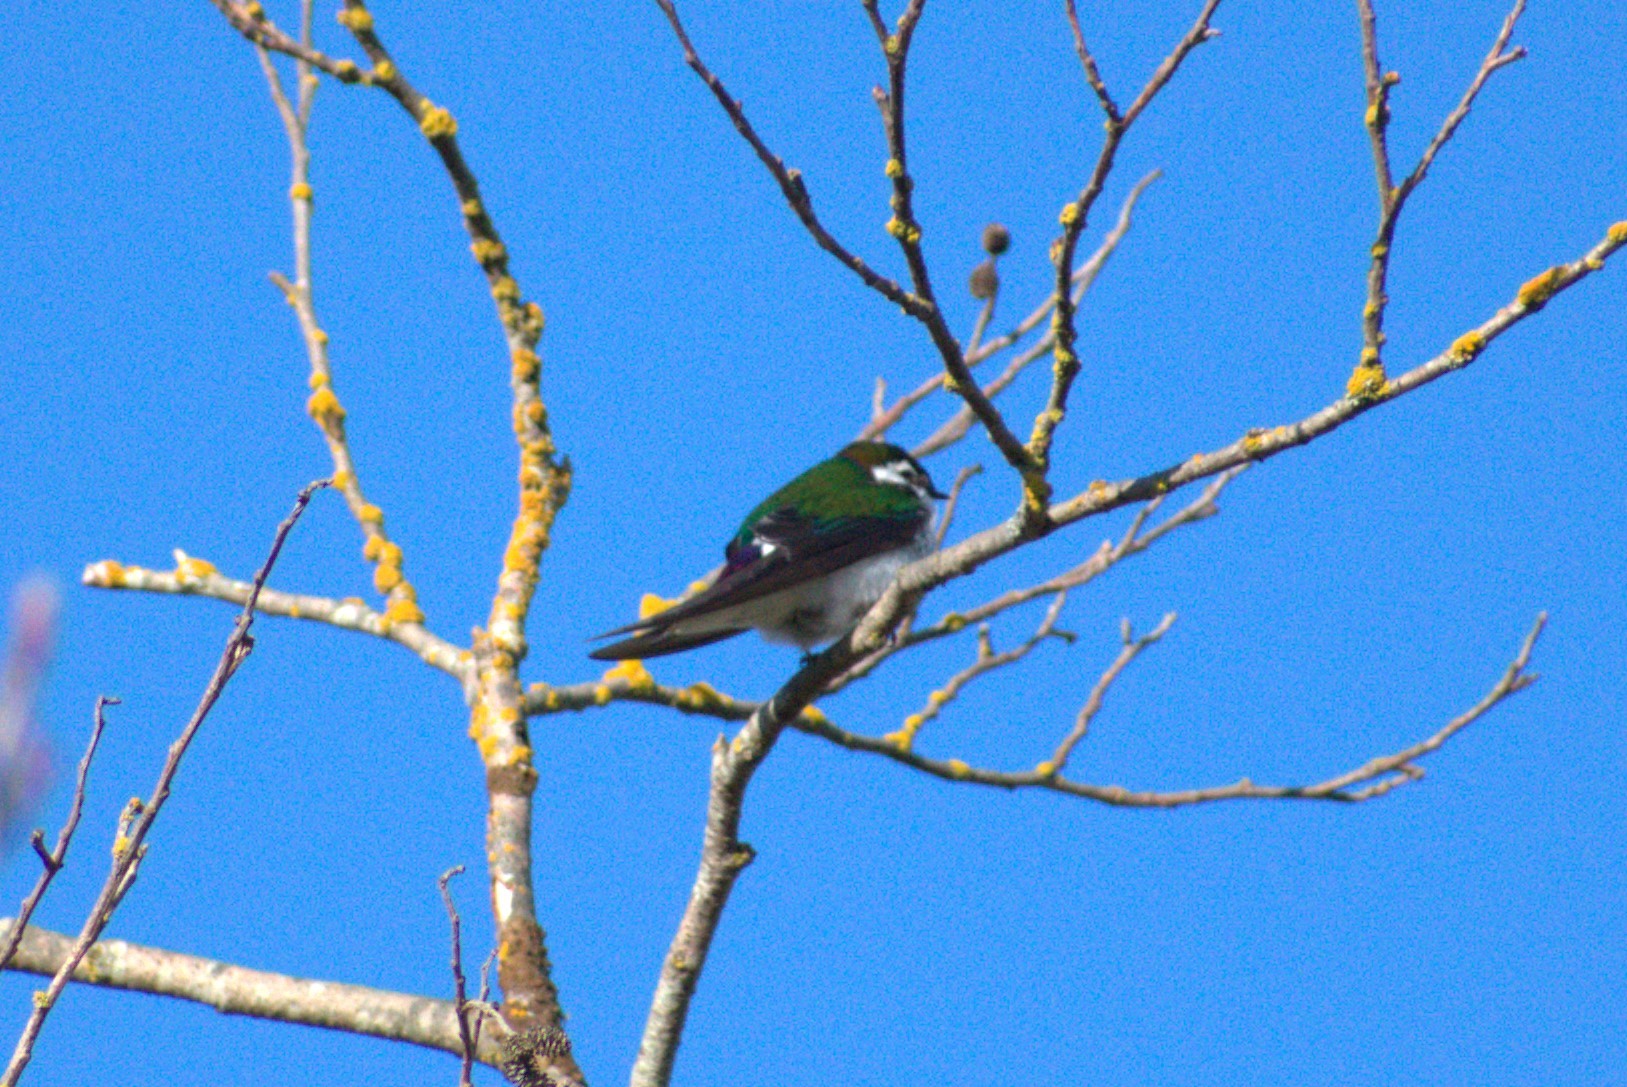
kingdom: Animalia
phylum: Chordata
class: Aves
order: Passeriformes
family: Hirundinidae
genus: Tachycineta
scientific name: Tachycineta thalassina
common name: Violet-green swallow
